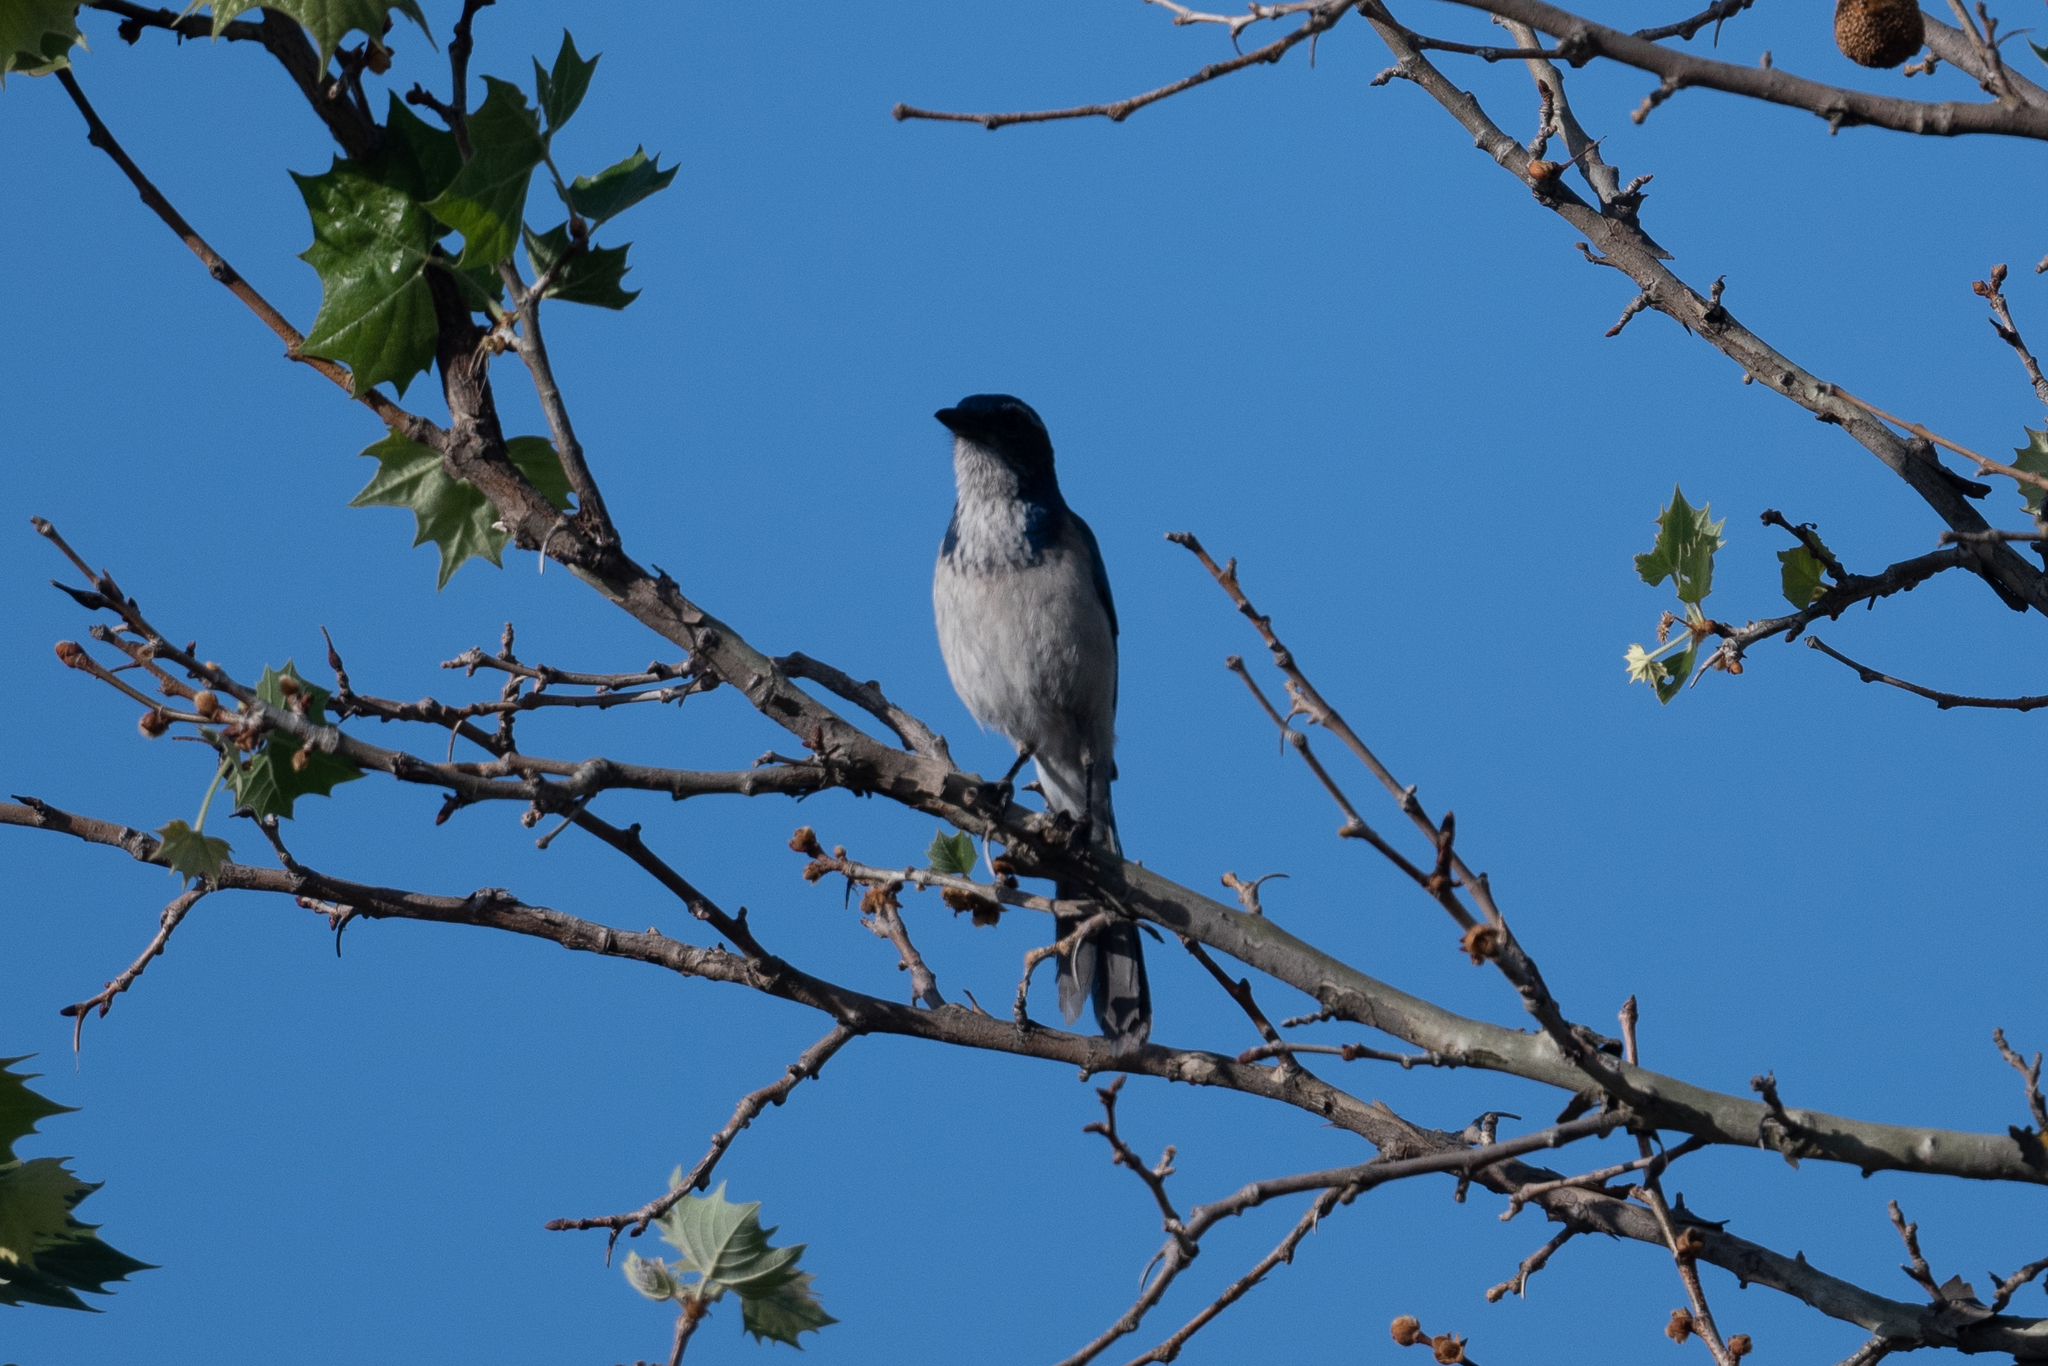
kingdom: Animalia
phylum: Chordata
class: Aves
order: Passeriformes
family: Corvidae
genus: Aphelocoma
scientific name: Aphelocoma californica
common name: California scrub-jay
